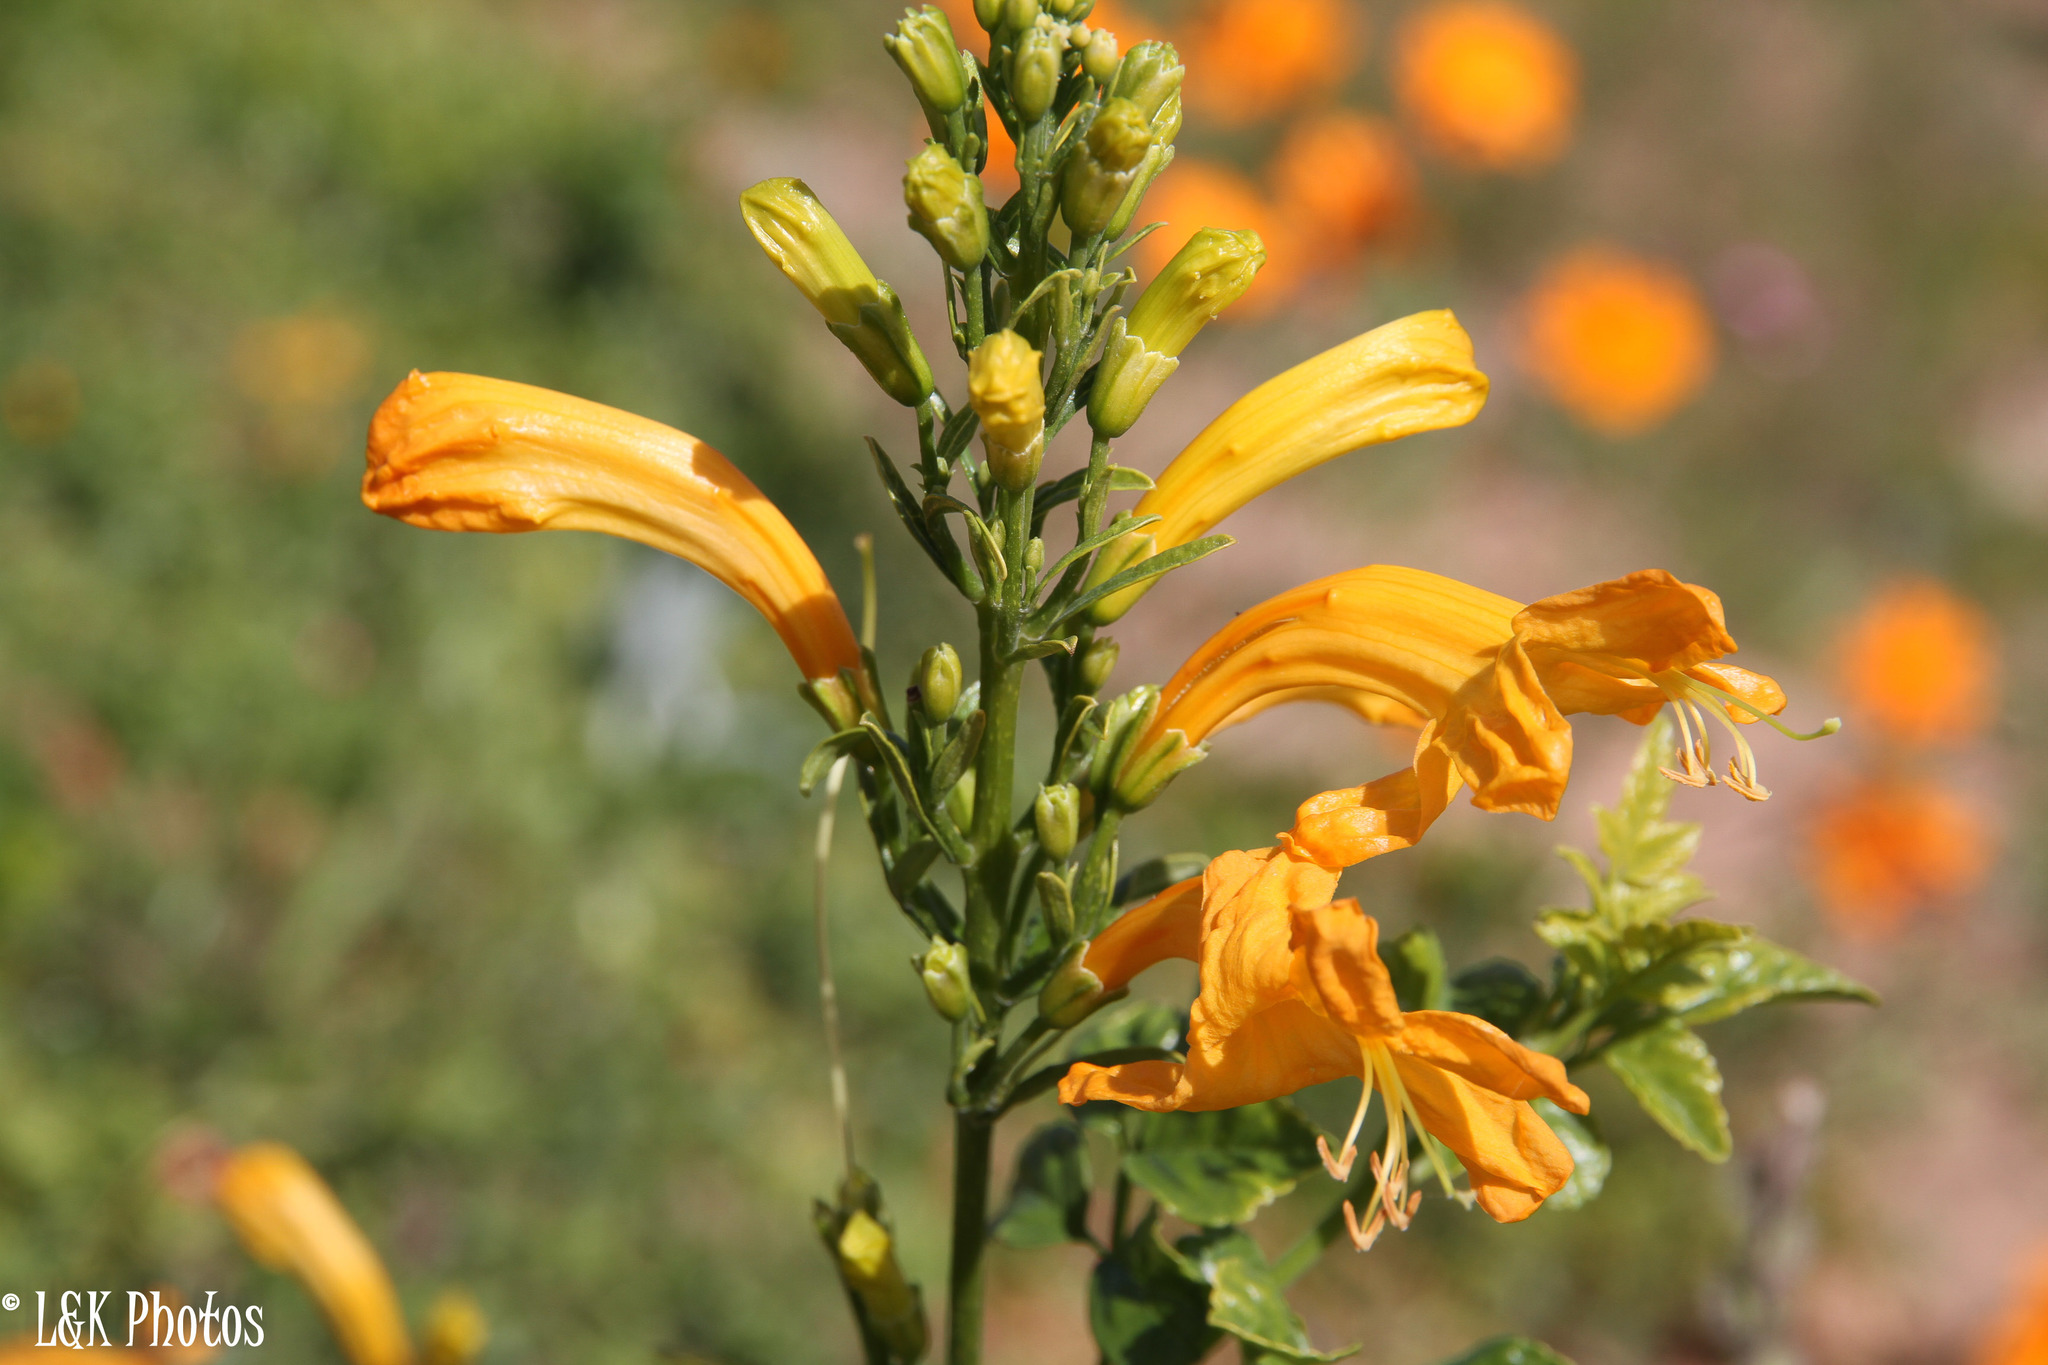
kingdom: Plantae
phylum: Tracheophyta
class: Magnoliopsida
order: Lamiales
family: Bignoniaceae
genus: Tecomaria
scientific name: Tecomaria capensis
